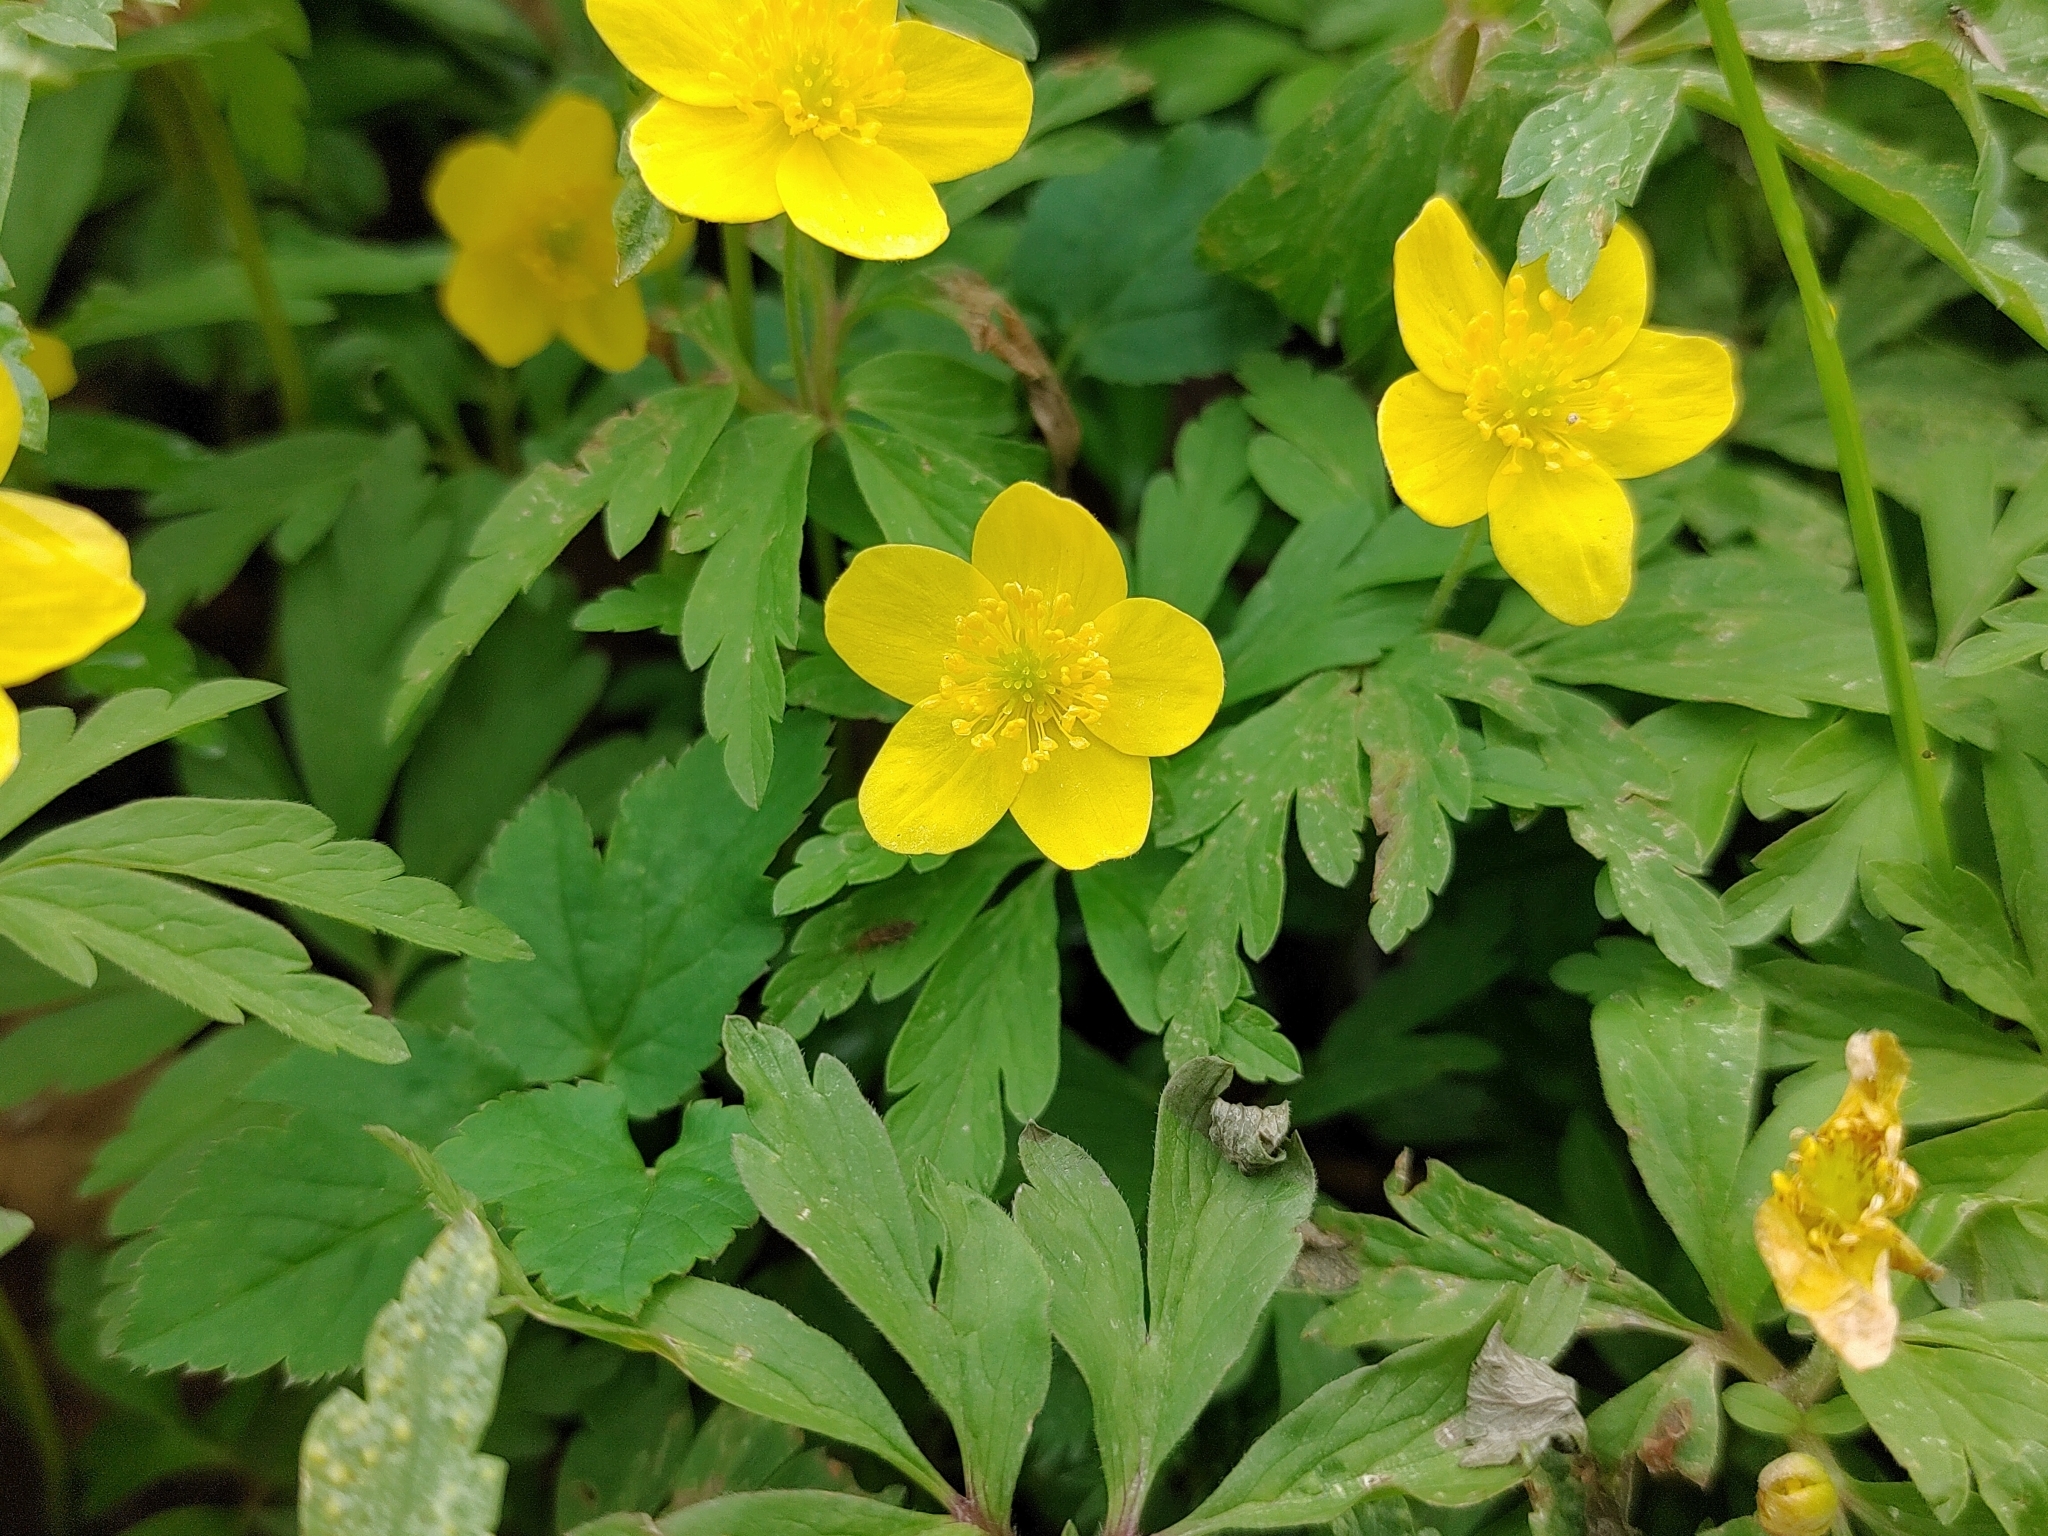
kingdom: Plantae
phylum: Tracheophyta
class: Magnoliopsida
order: Ranunculales
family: Ranunculaceae
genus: Anemone
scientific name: Anemone ranunculoides
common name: Yellow anemone
